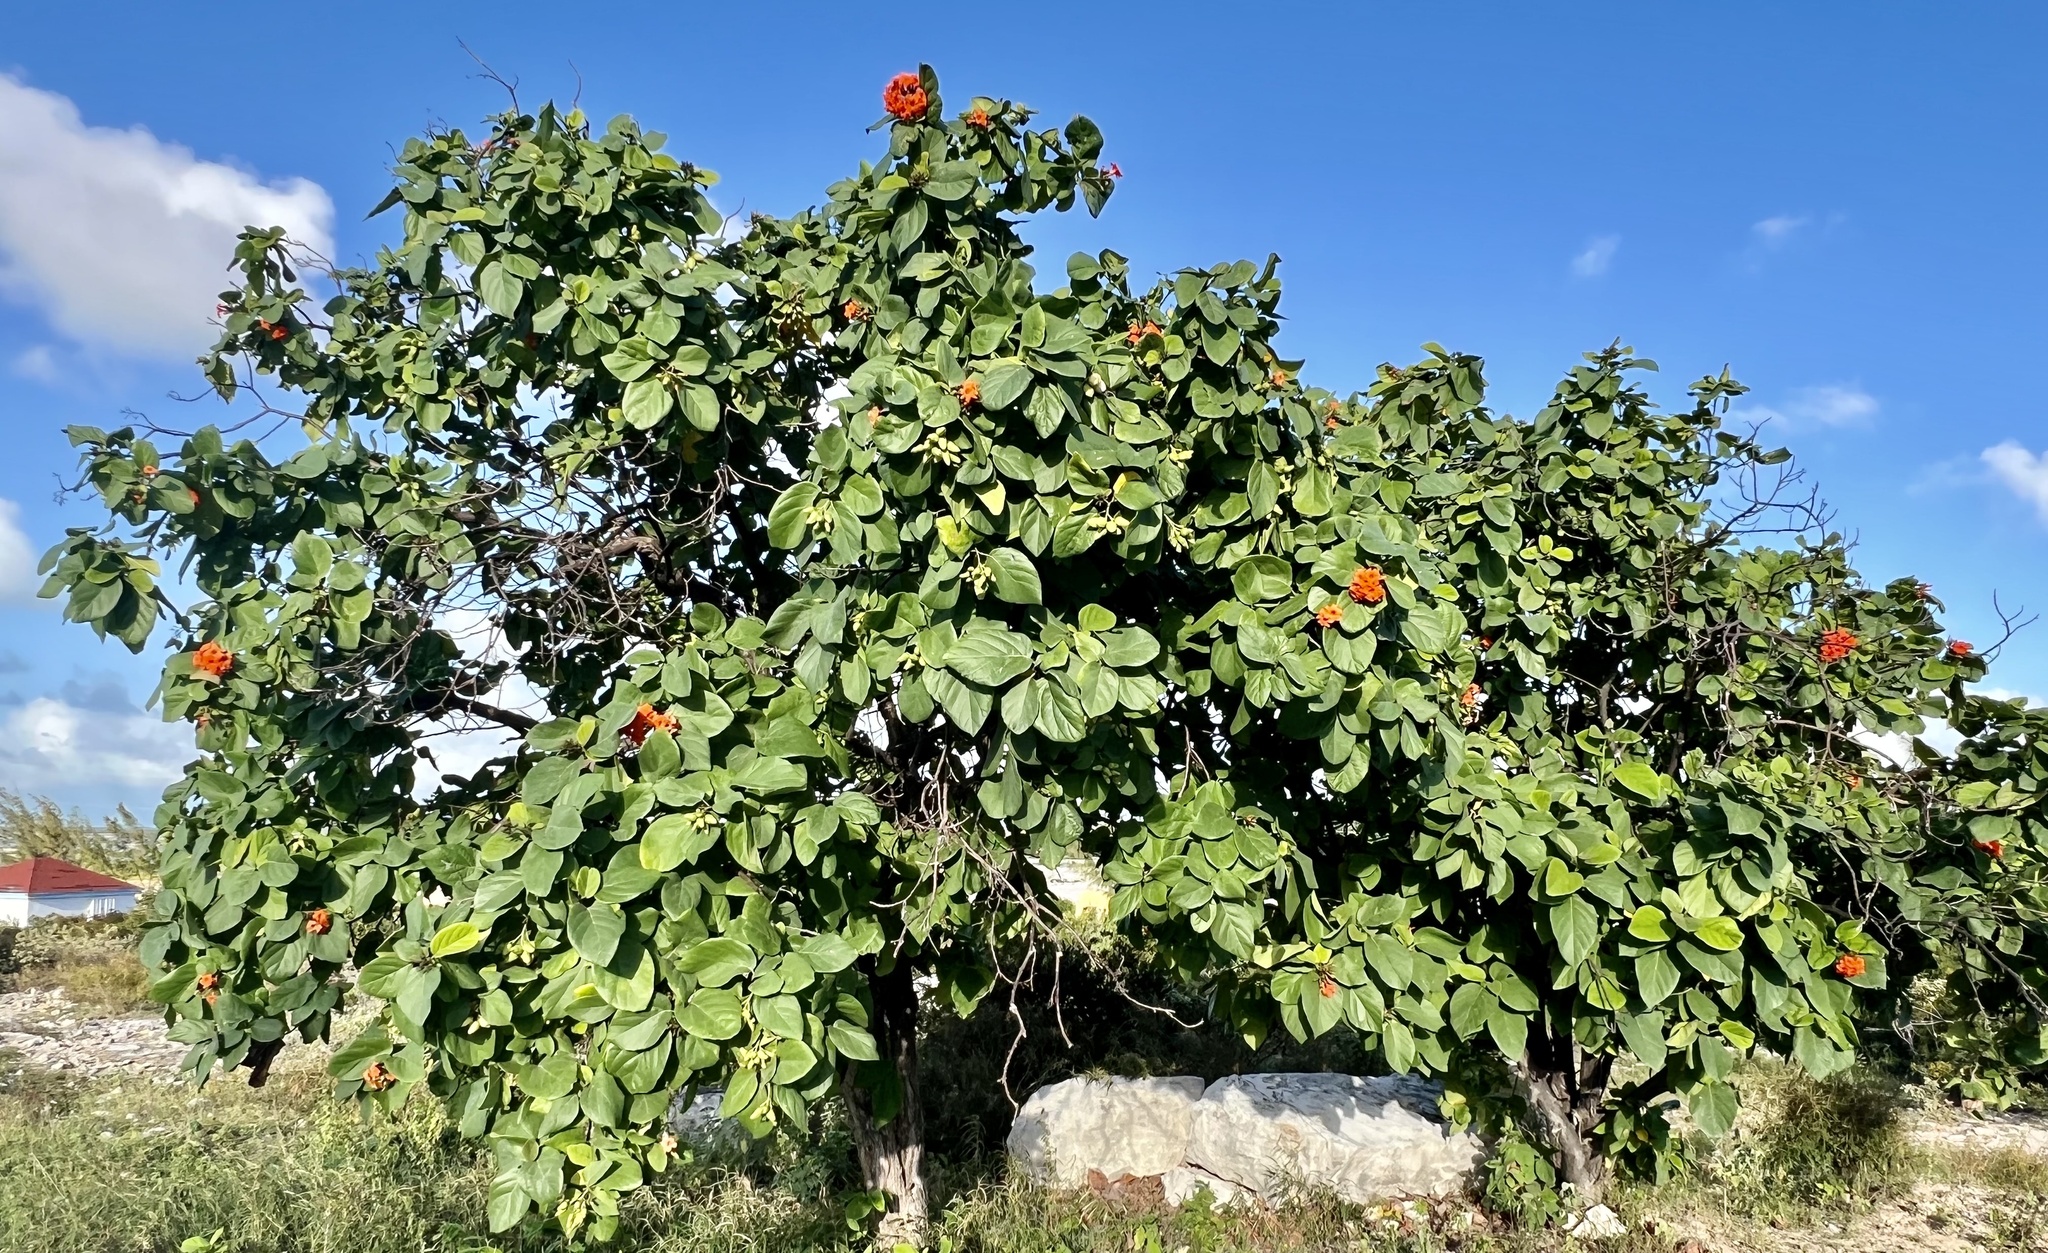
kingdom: Plantae
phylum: Tracheophyta
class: Magnoliopsida
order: Boraginales
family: Cordiaceae
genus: Cordia
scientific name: Cordia sebestena
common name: Largeleaf geigertree
